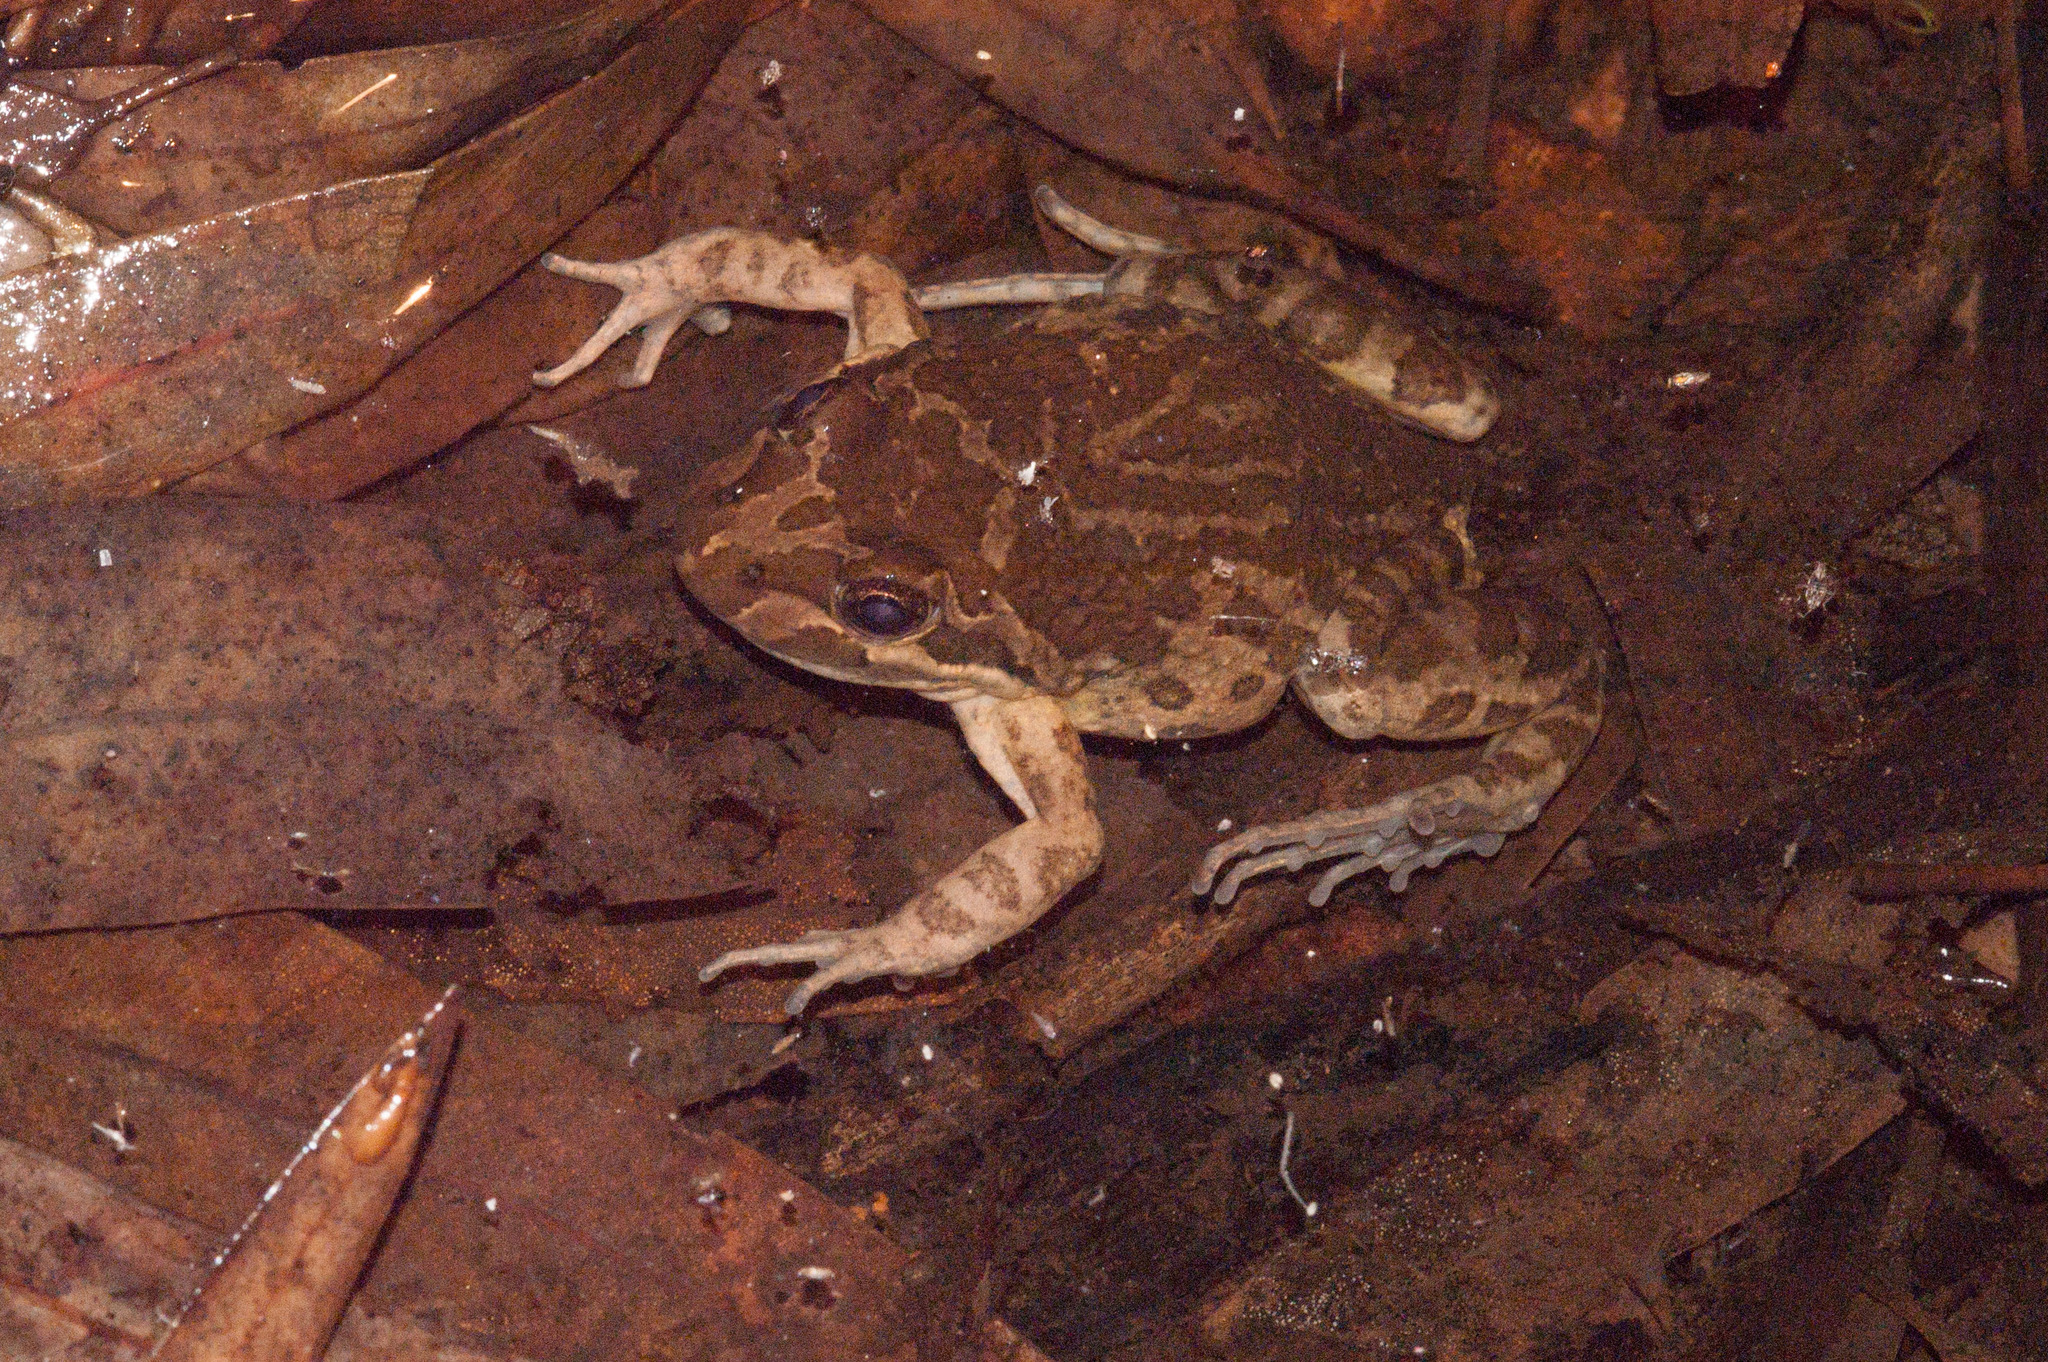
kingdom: Animalia
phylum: Chordata
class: Amphibia
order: Anura
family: Limnodynastidae
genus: Limnodynastes
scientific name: Limnodynastes tasmaniensis
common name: Spotted marsh frog
